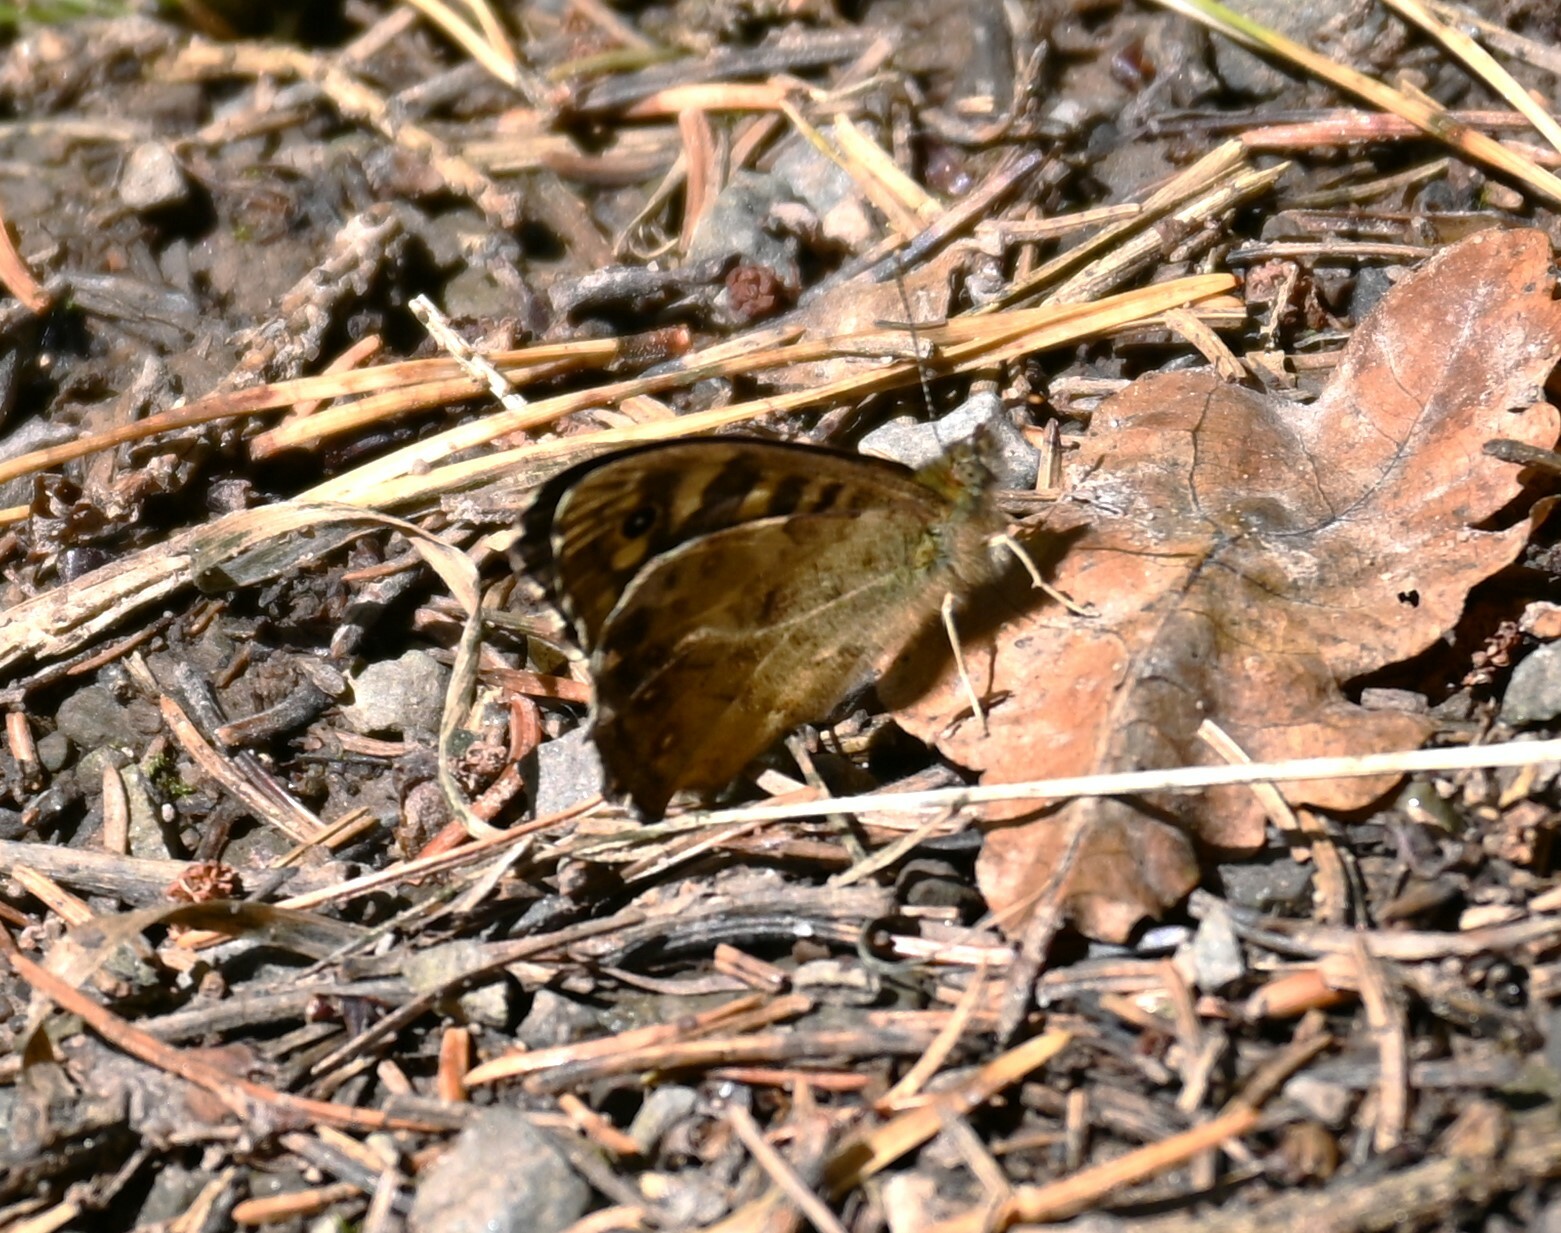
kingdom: Animalia
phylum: Arthropoda
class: Insecta
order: Lepidoptera
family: Nymphalidae
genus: Pararge
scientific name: Pararge aegeria
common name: Speckled wood
